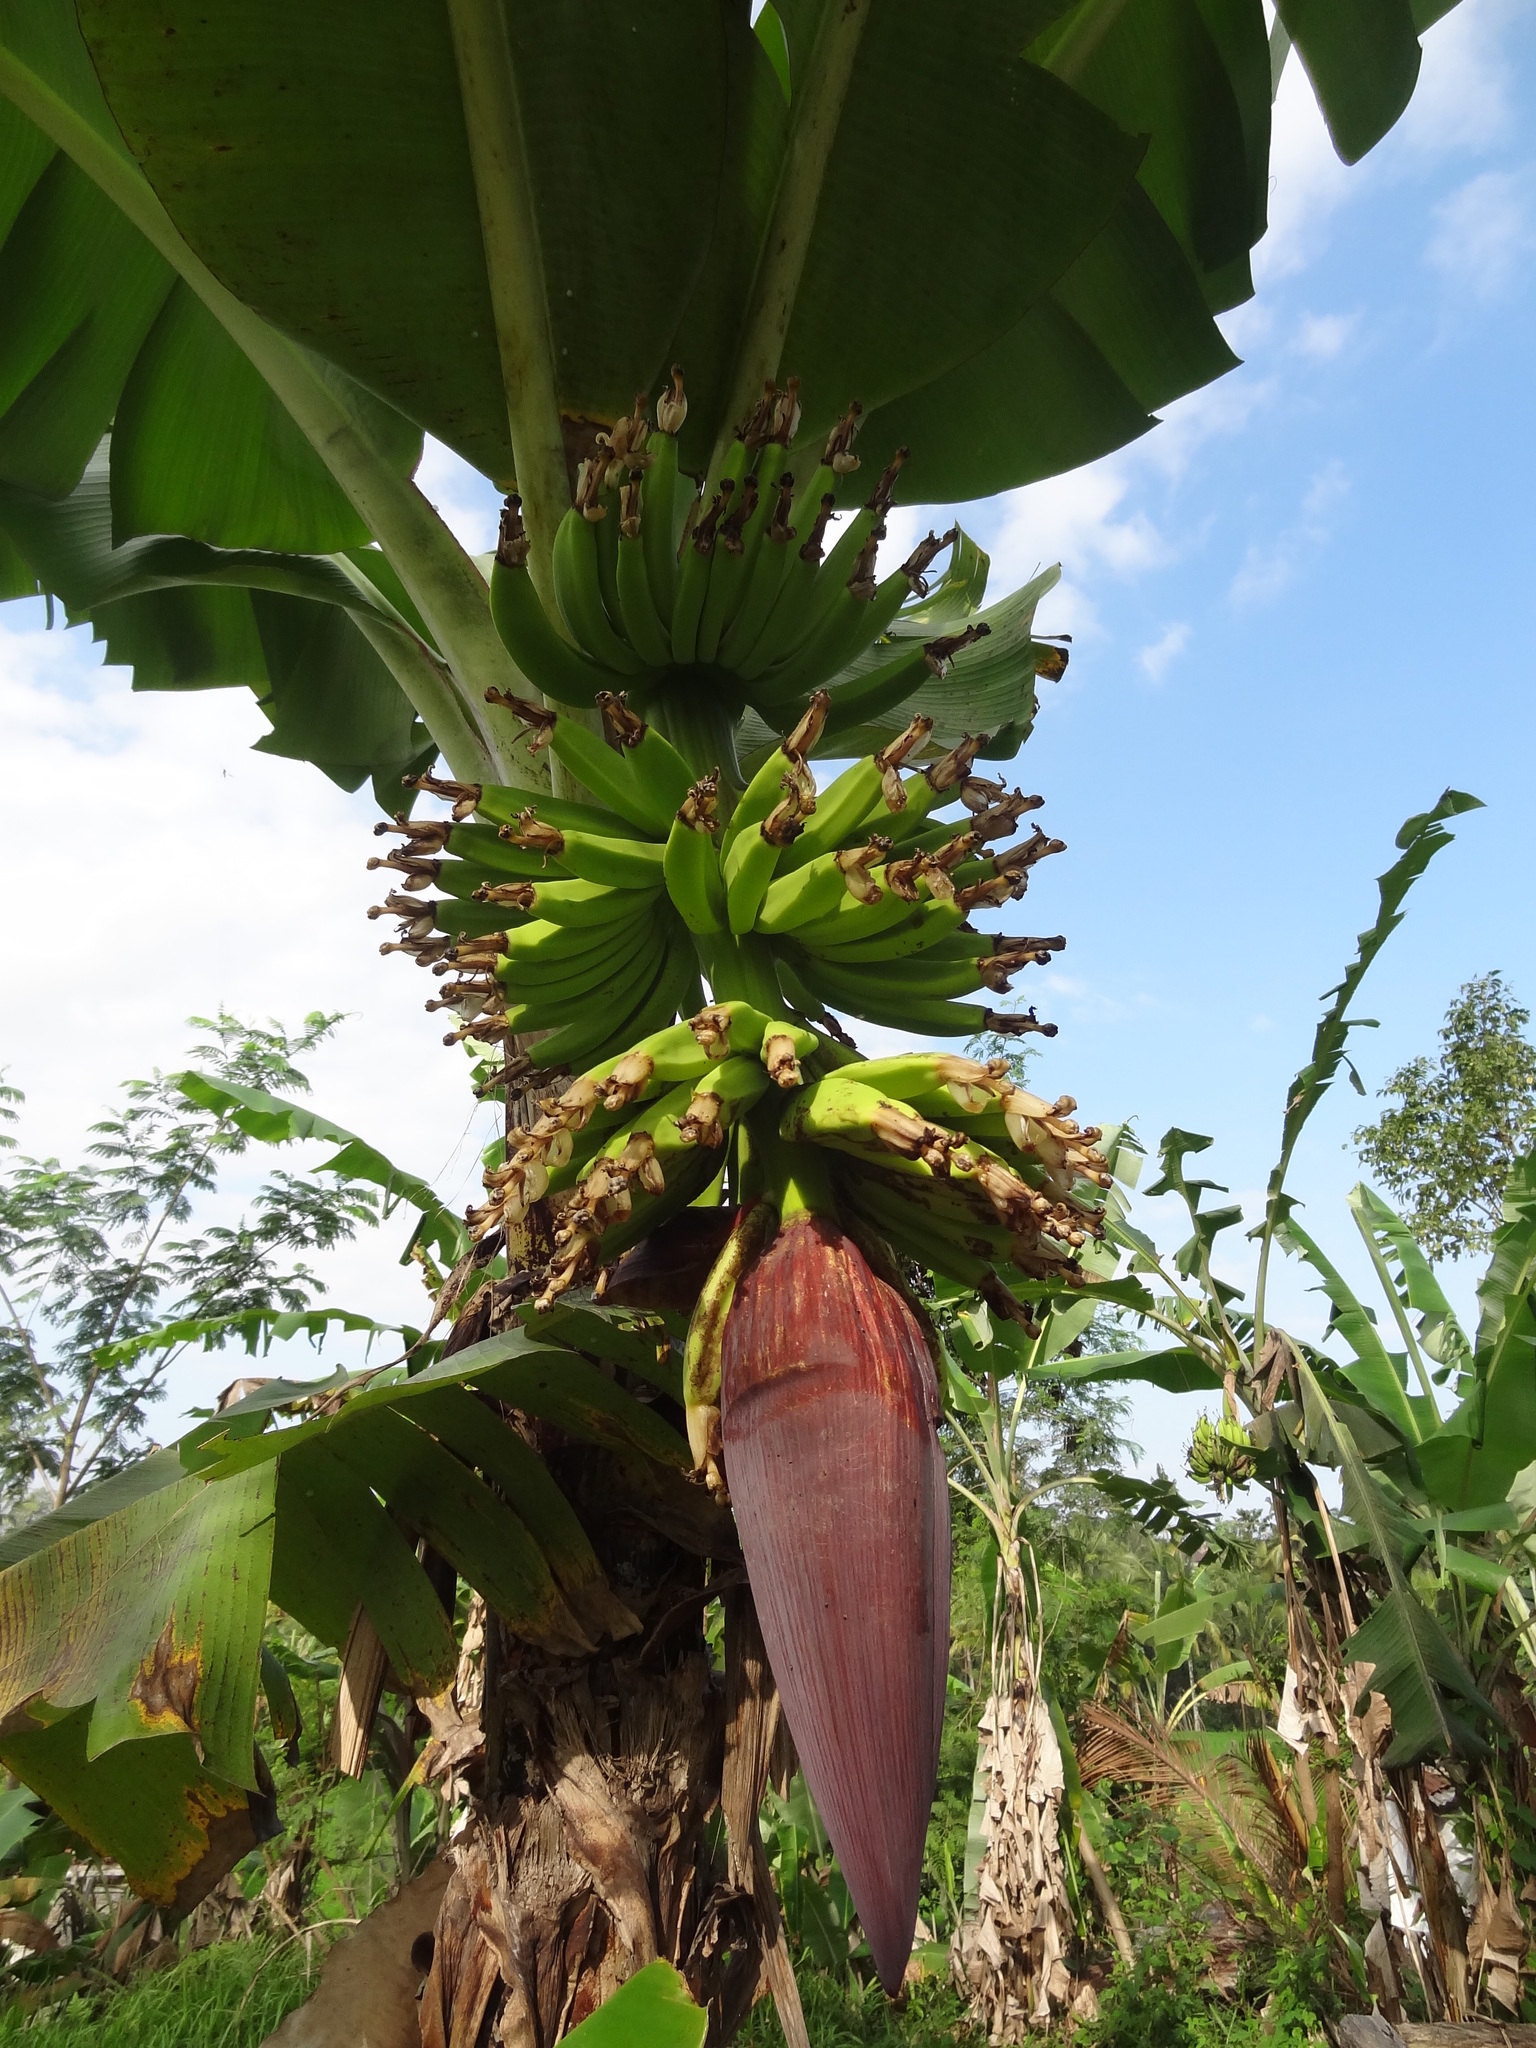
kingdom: Plantae
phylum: Tracheophyta
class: Liliopsida
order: Zingiberales
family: Musaceae
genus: Musa
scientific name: Musa acuminata
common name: Edible banana
